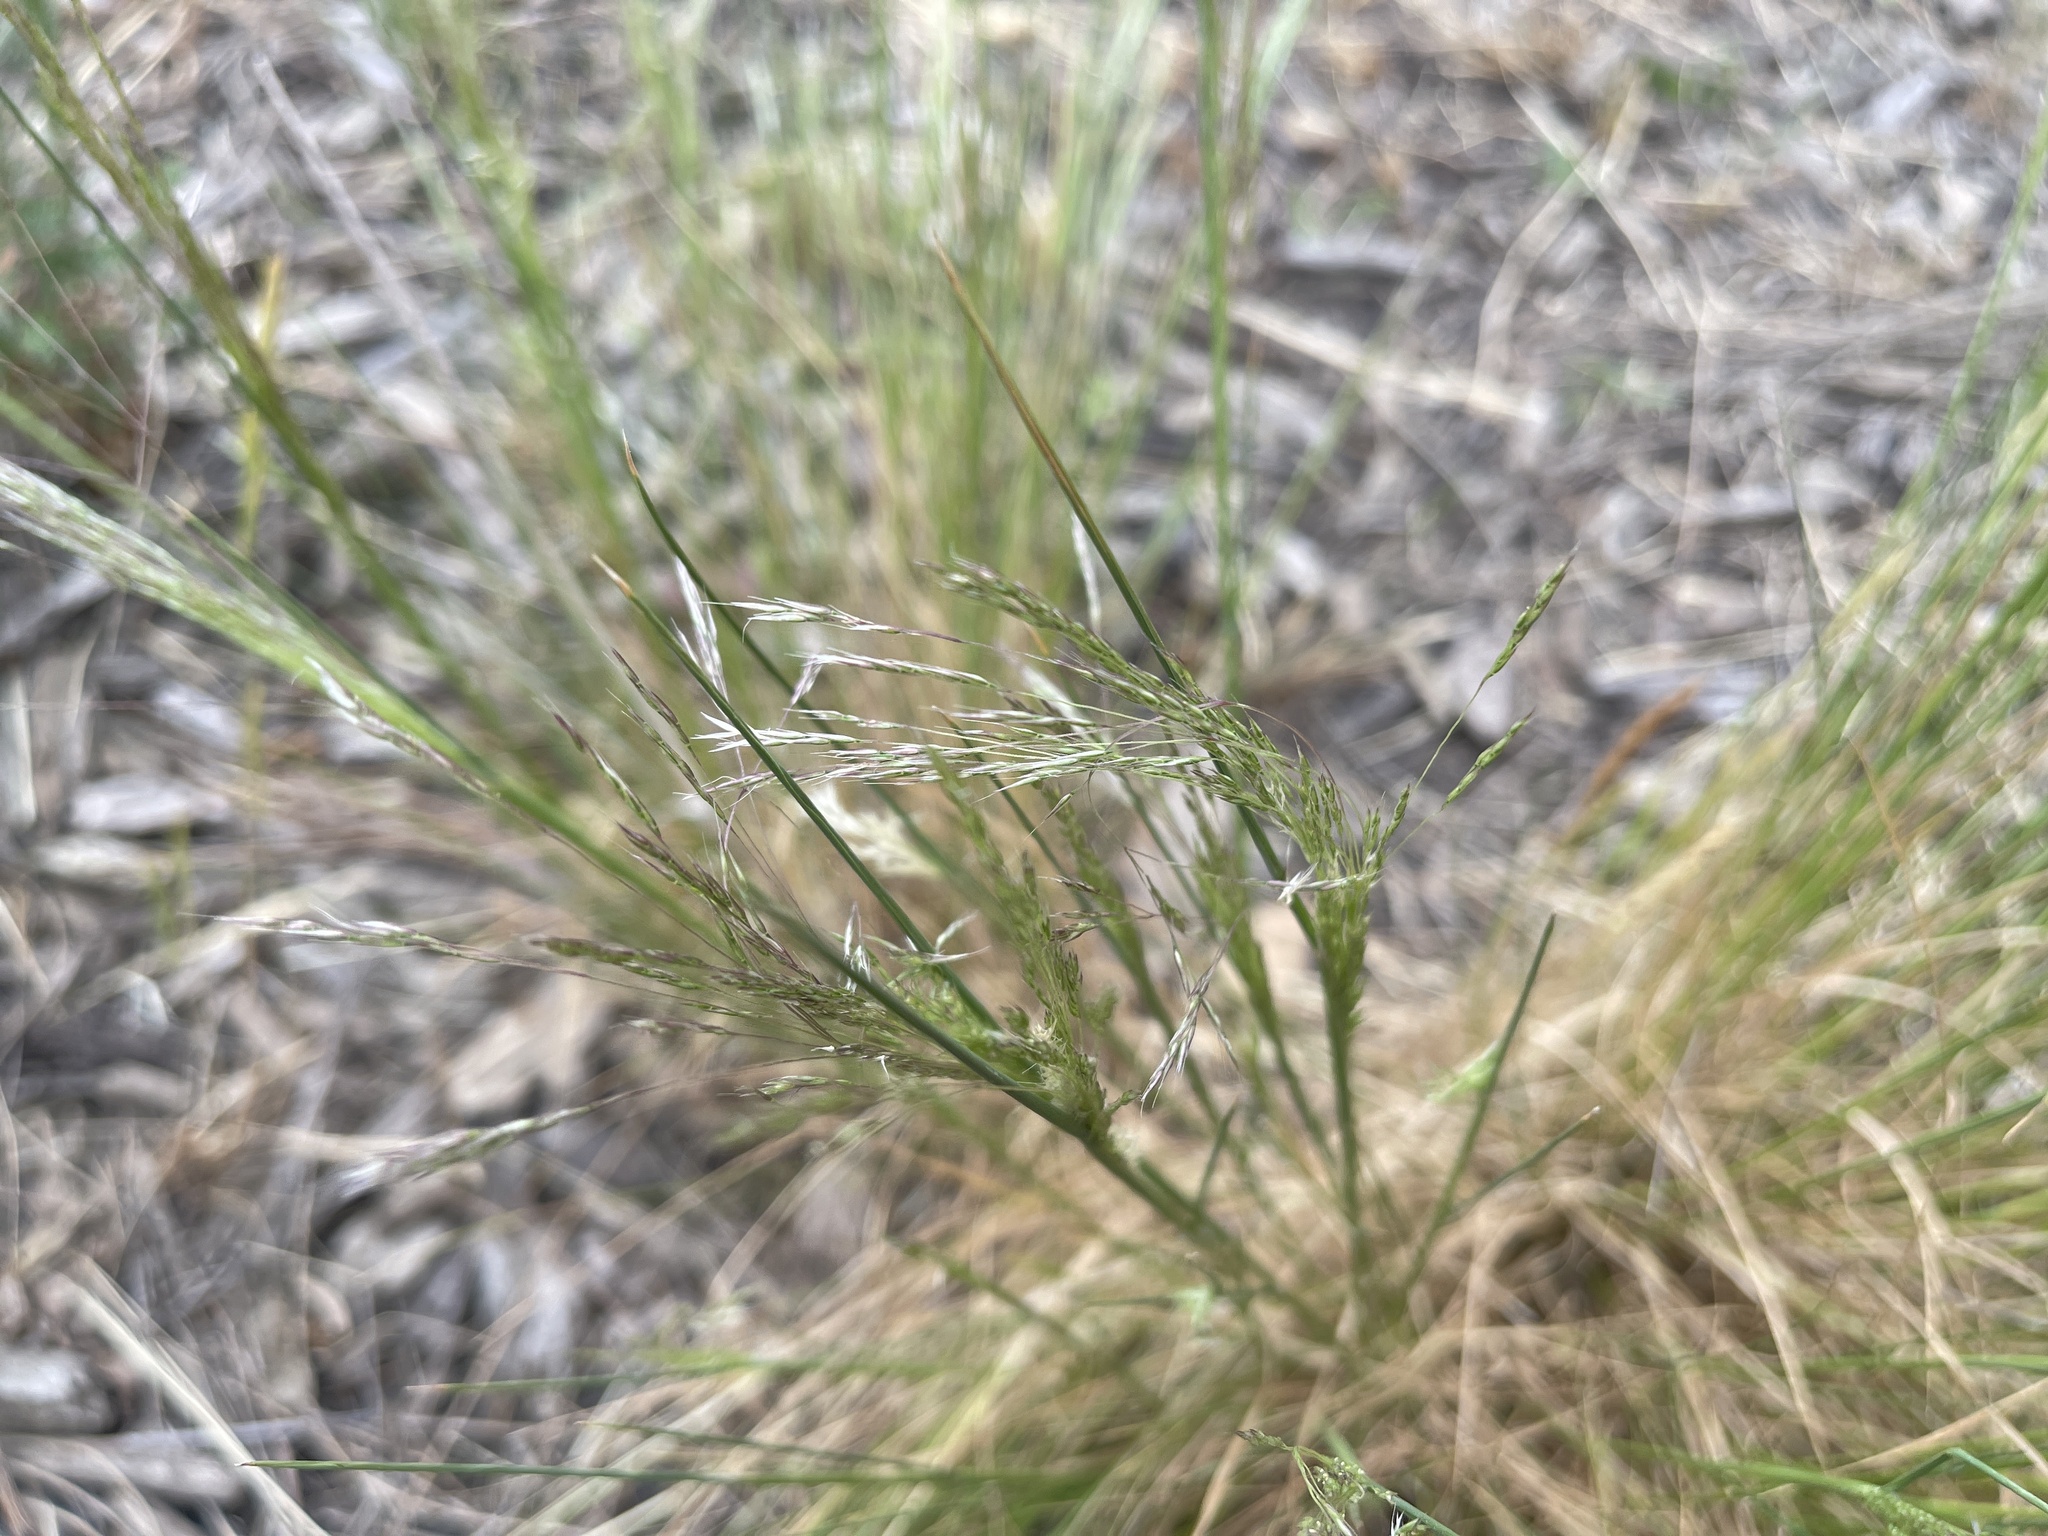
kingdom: Plantae
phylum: Tracheophyta
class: Liliopsida
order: Poales
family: Poaceae
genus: Lachnagrostis
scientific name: Lachnagrostis filiformis
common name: Bentgrass
